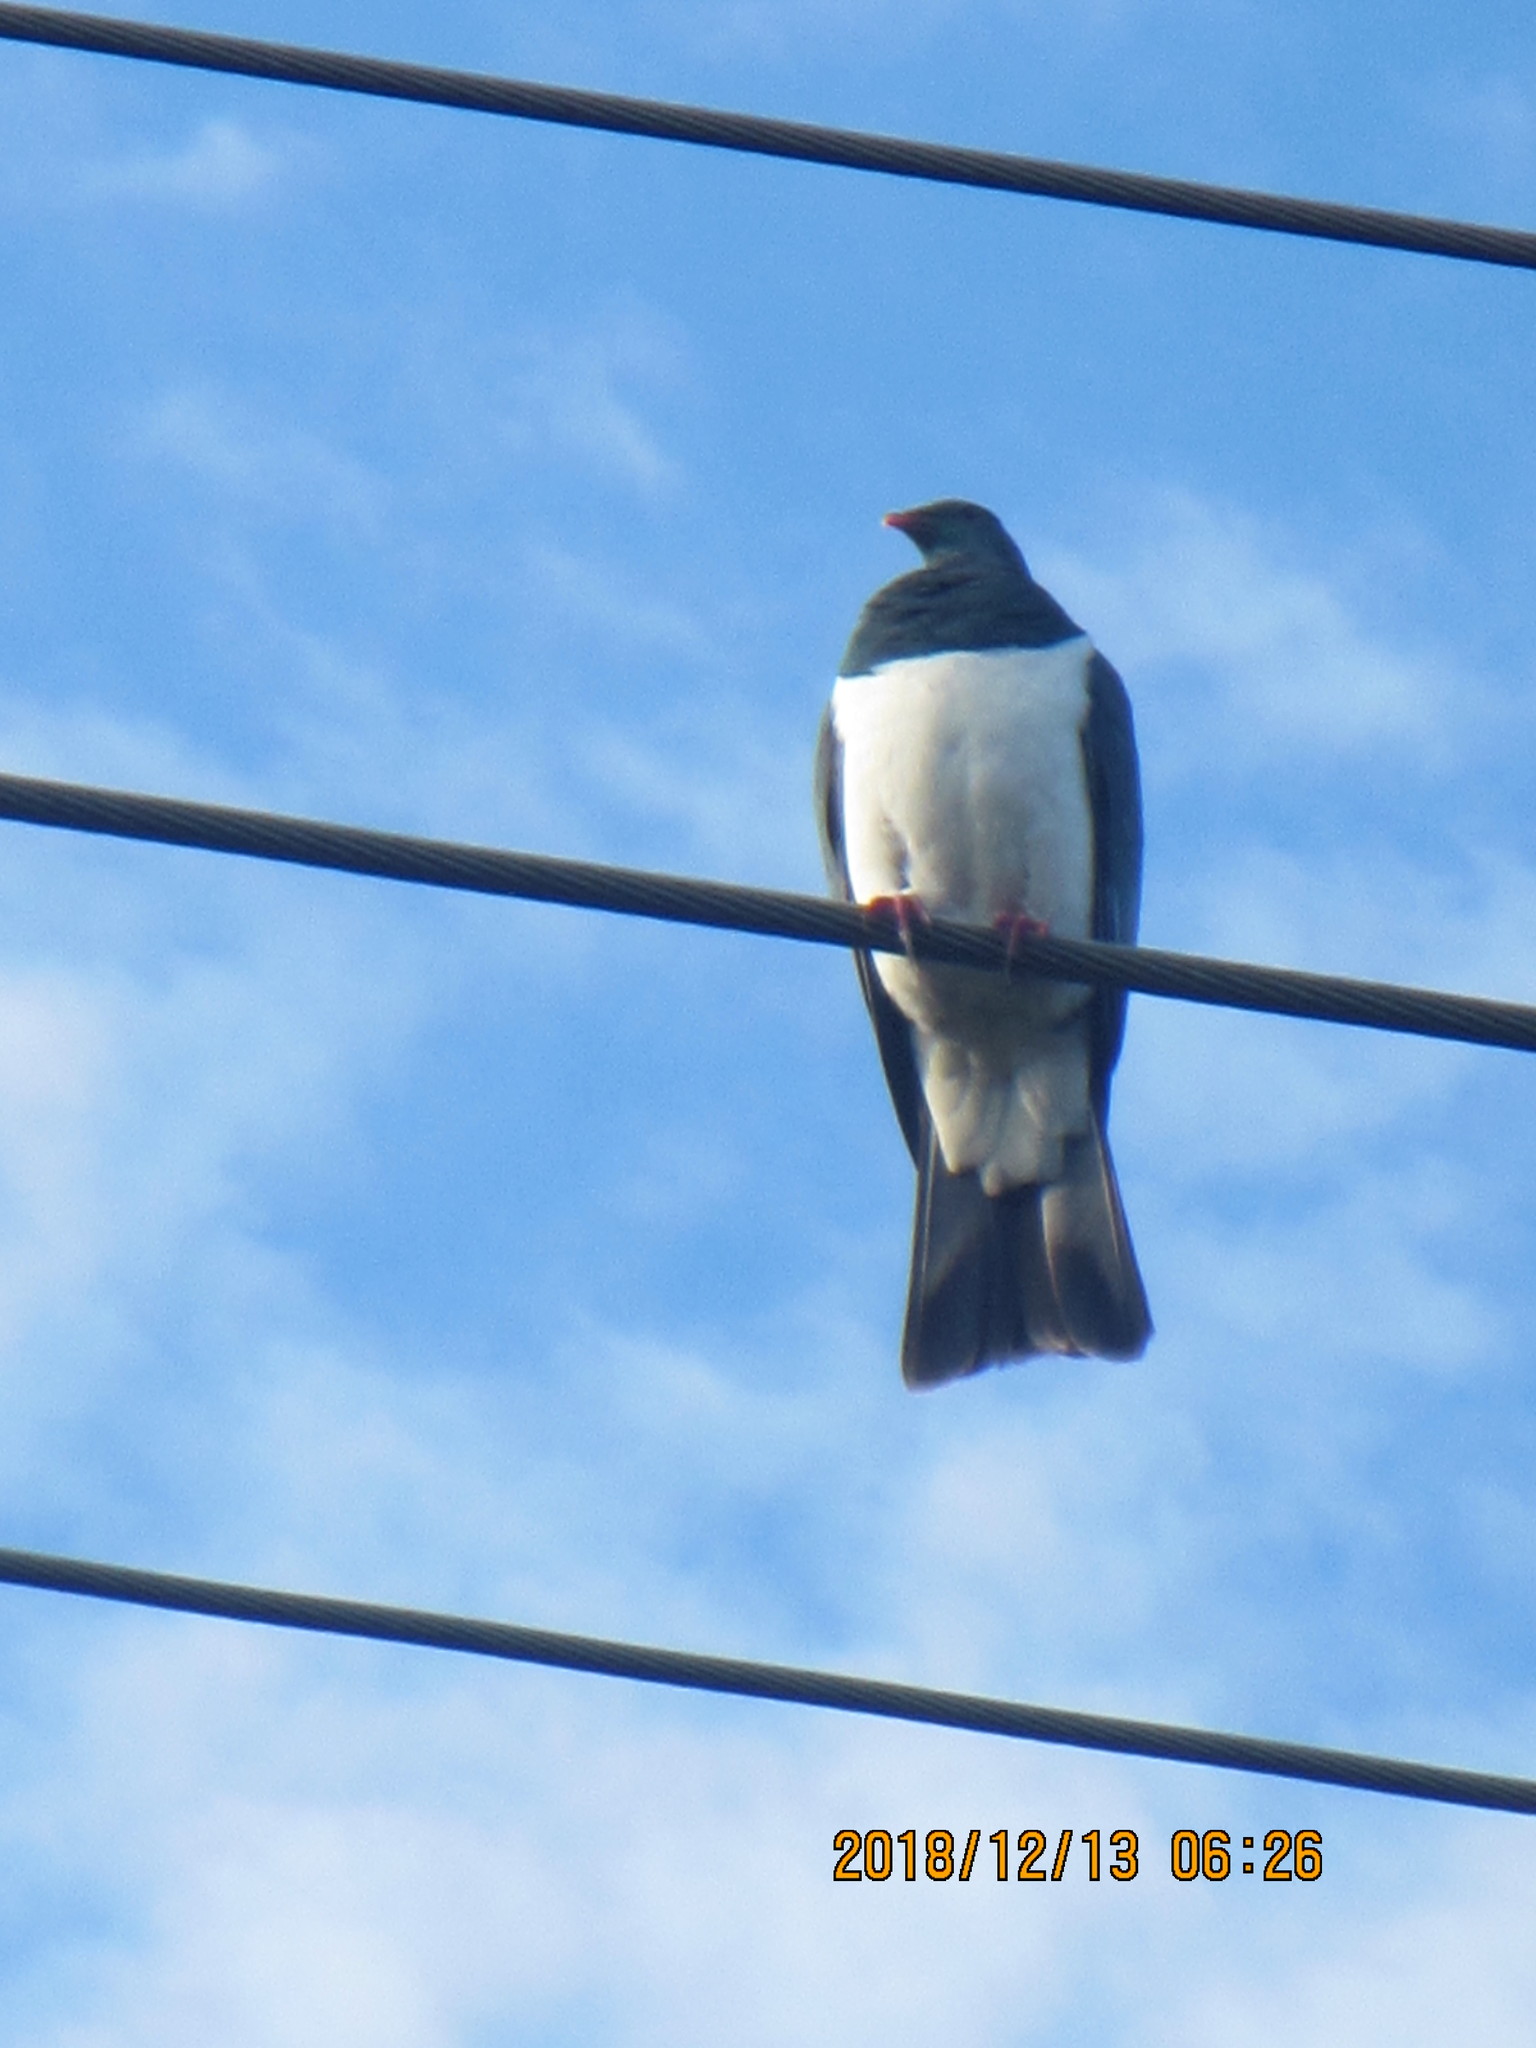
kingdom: Animalia
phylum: Chordata
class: Aves
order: Columbiformes
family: Columbidae
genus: Hemiphaga
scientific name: Hemiphaga novaeseelandiae
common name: New zealand pigeon
